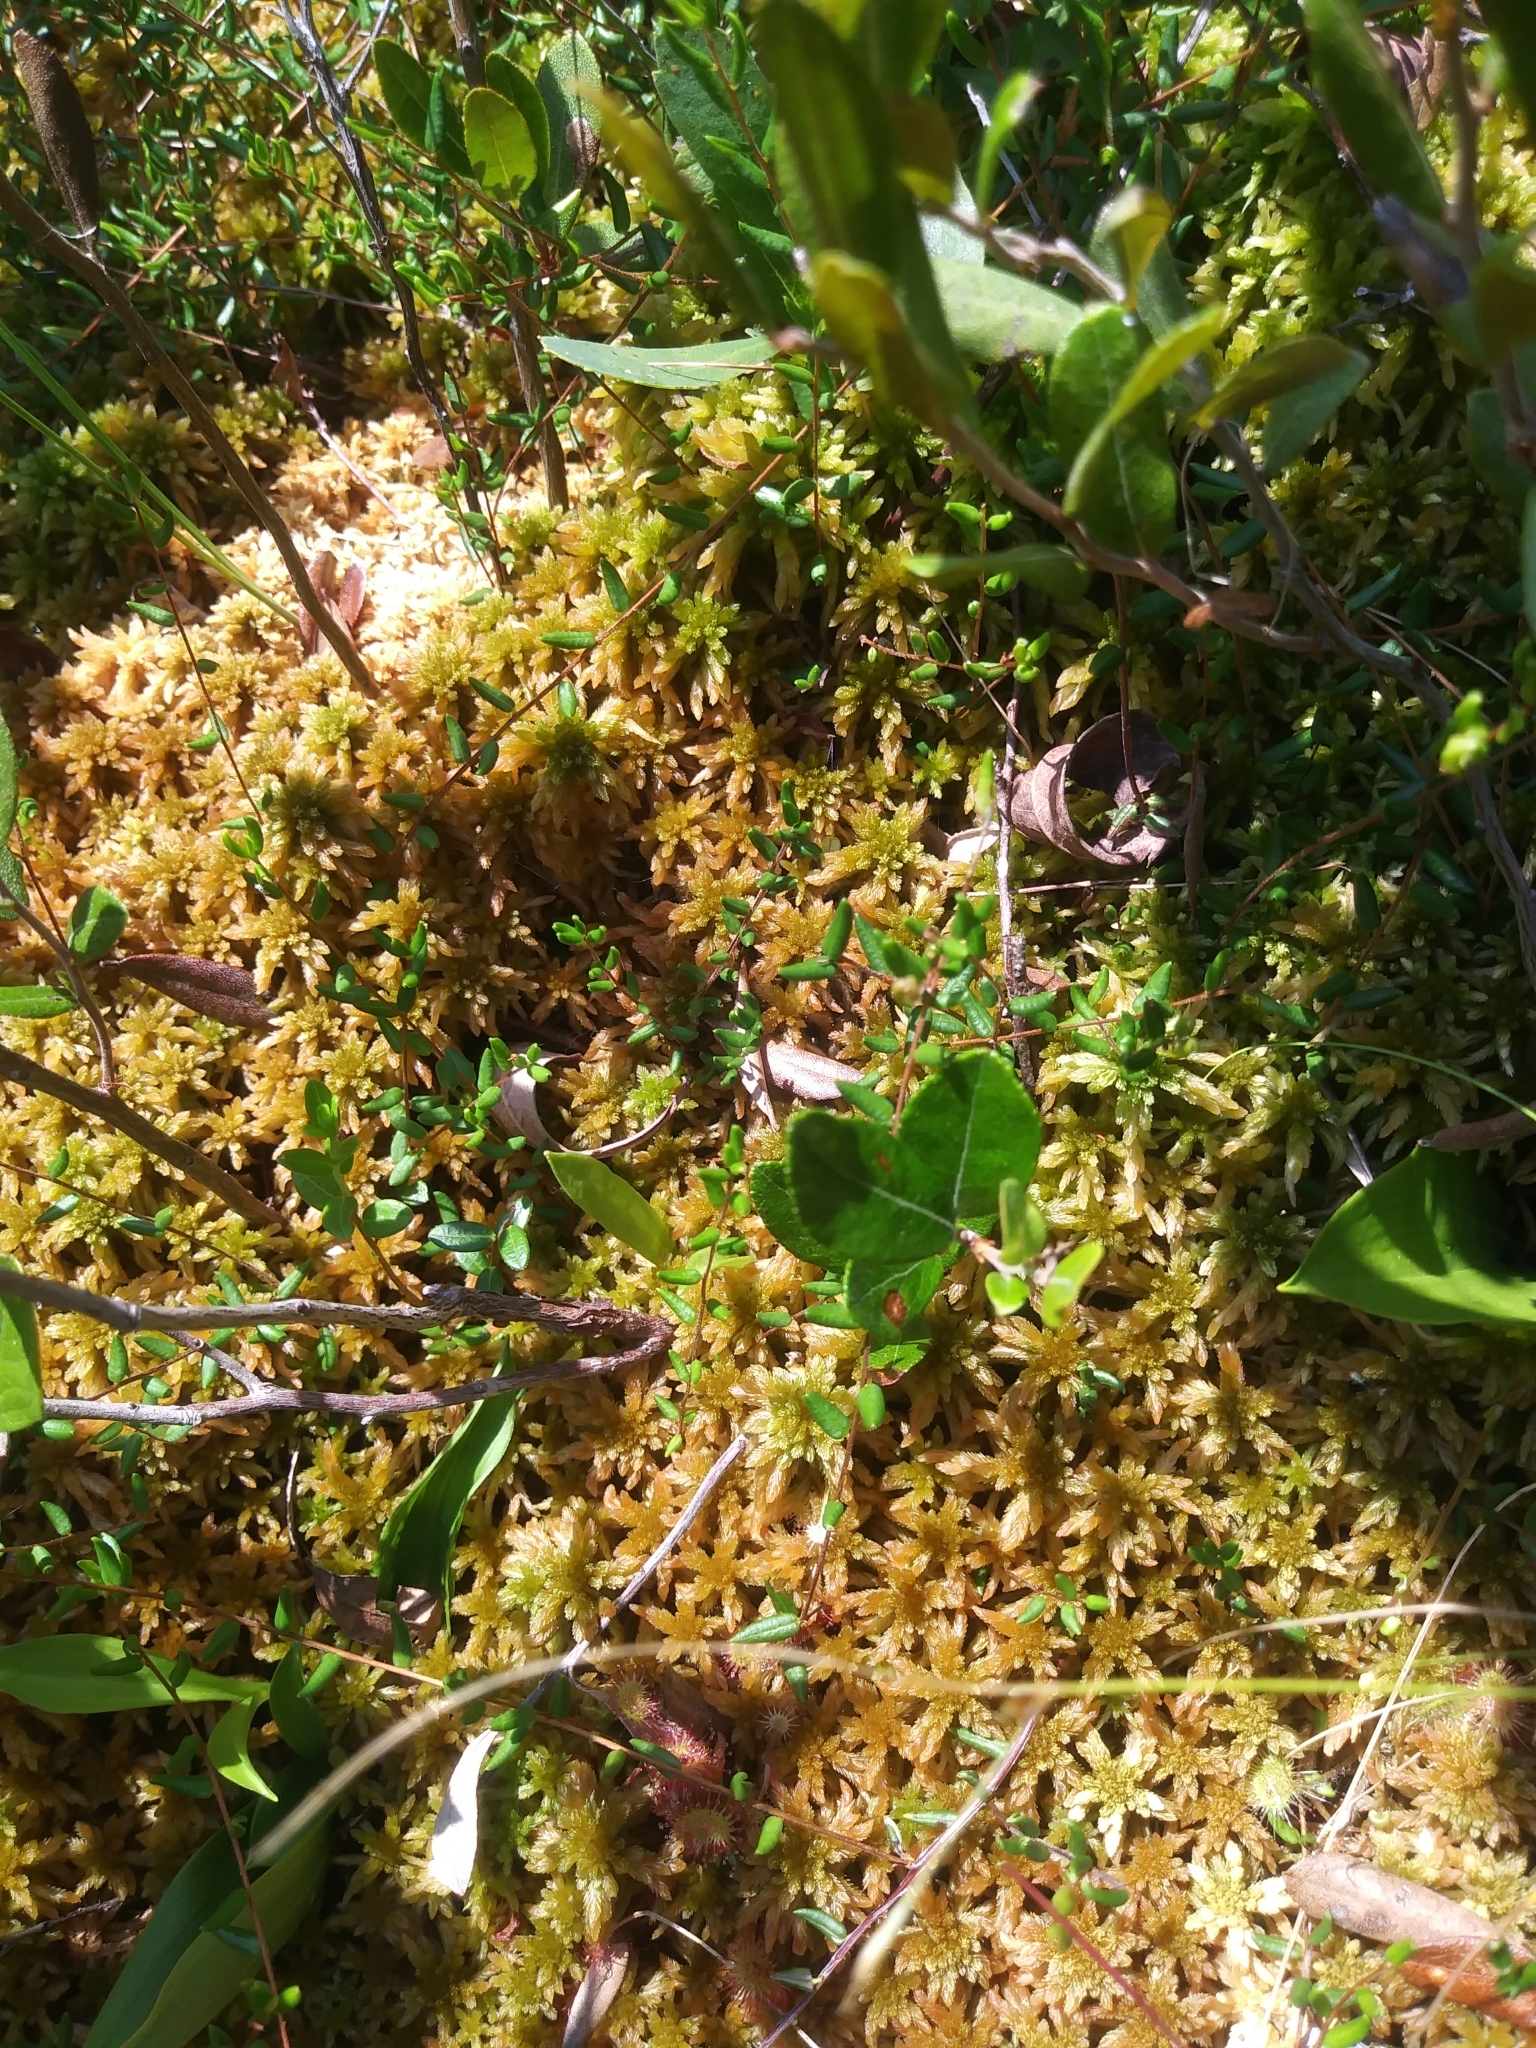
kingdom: Plantae
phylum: Tracheophyta
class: Magnoliopsida
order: Ericales
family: Ericaceae
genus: Vaccinium
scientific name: Vaccinium oxycoccos
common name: Cranberry
